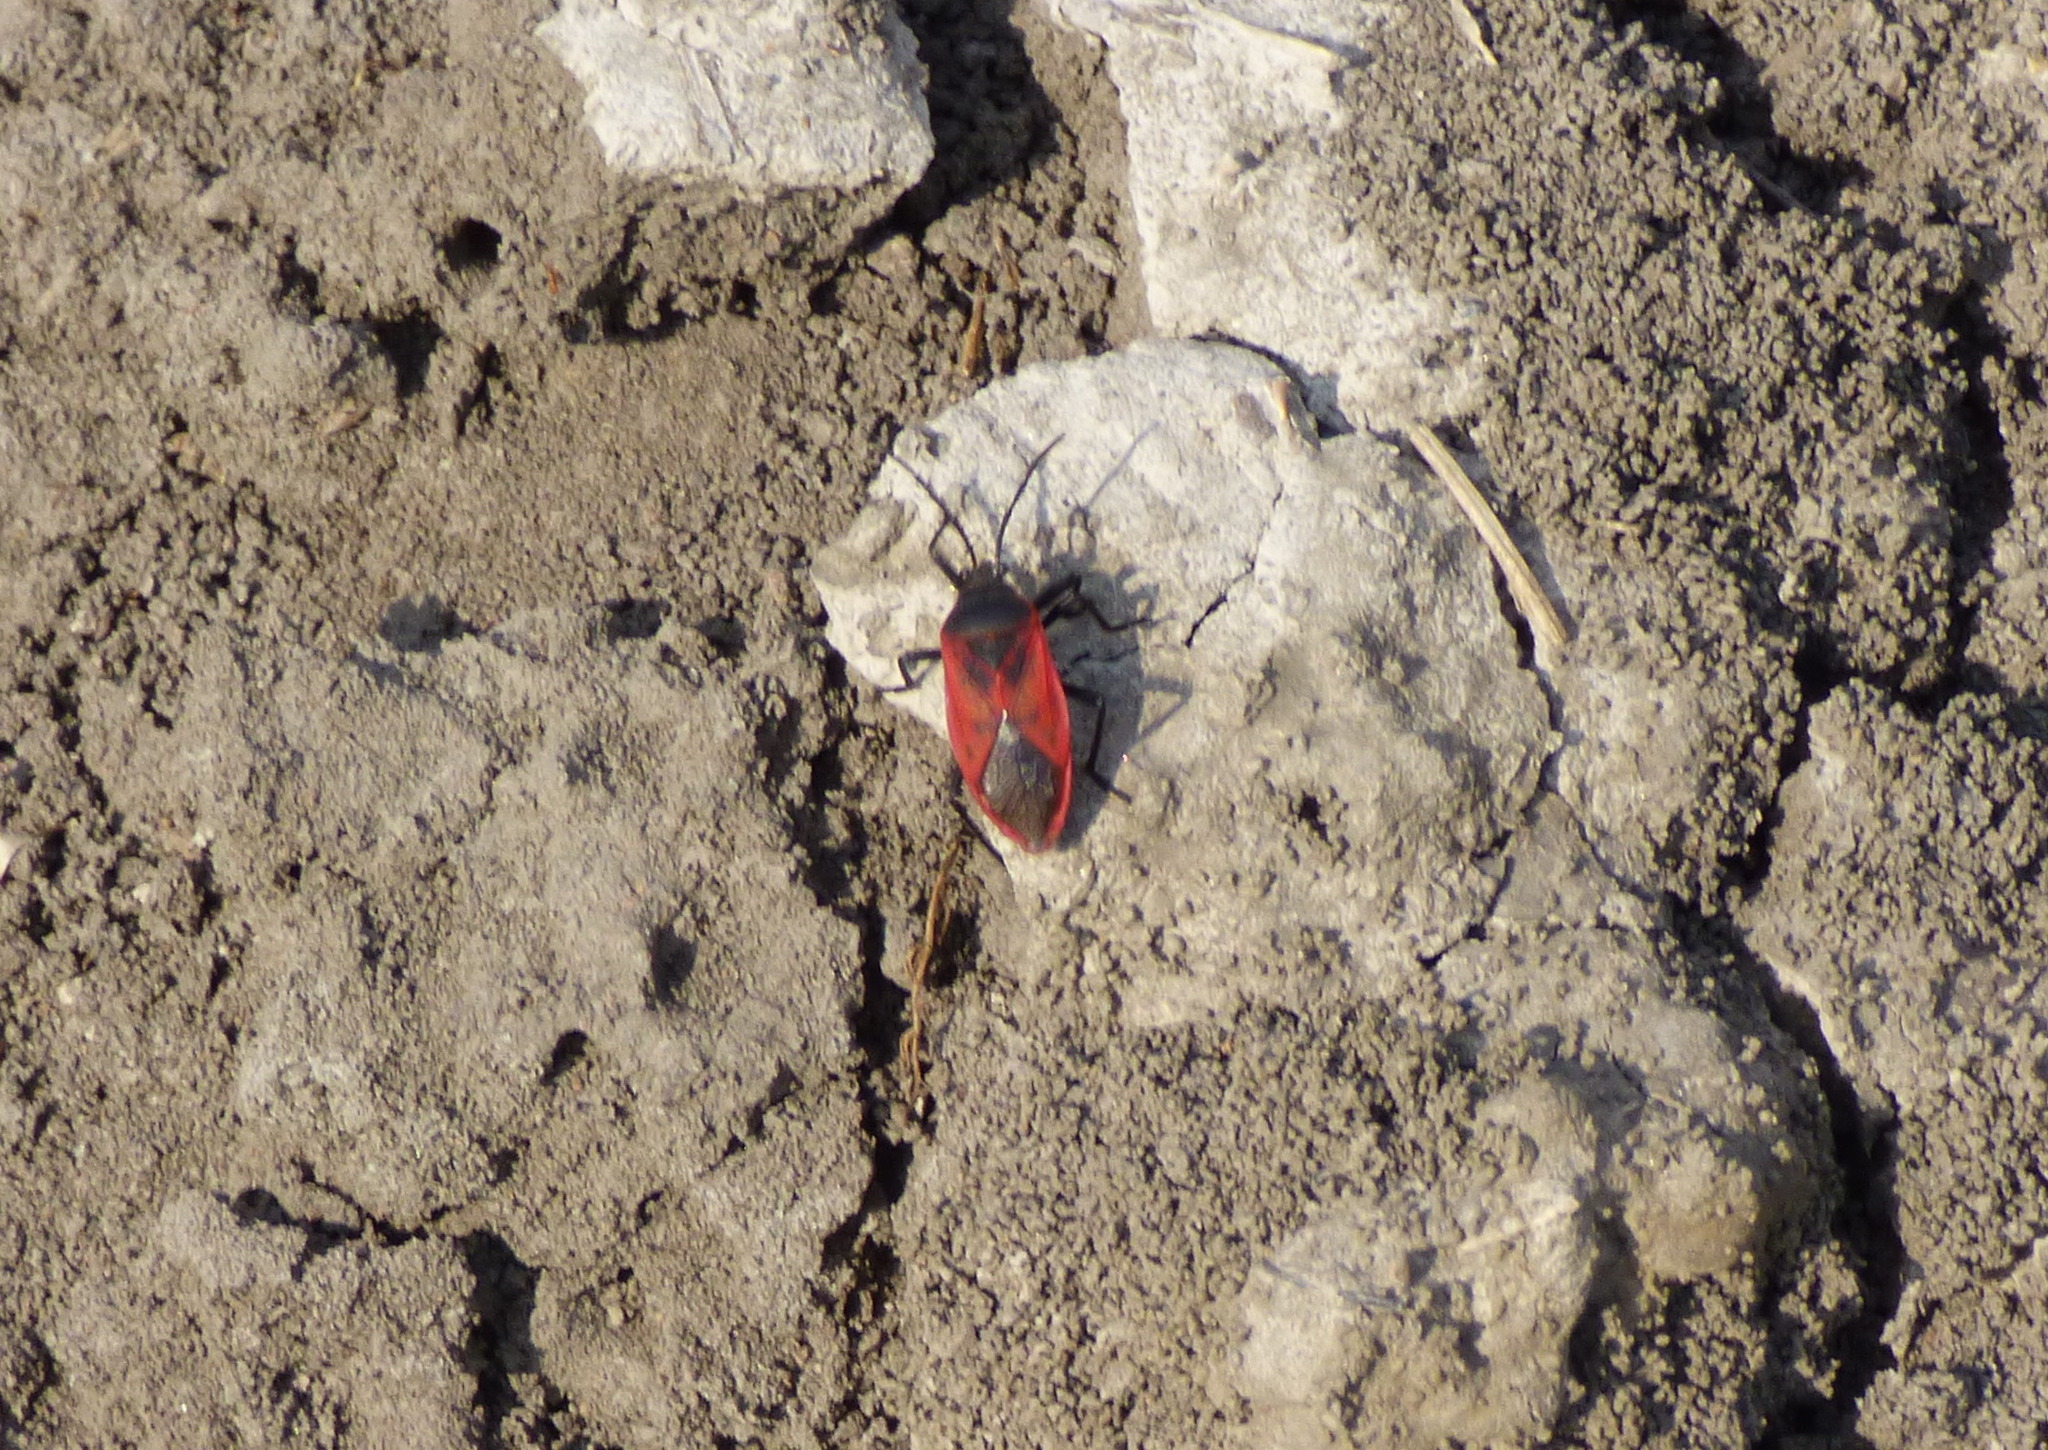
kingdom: Animalia
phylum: Arthropoda
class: Insecta
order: Hemiptera
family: Largidae
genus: Largus
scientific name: Largus rufipennis
